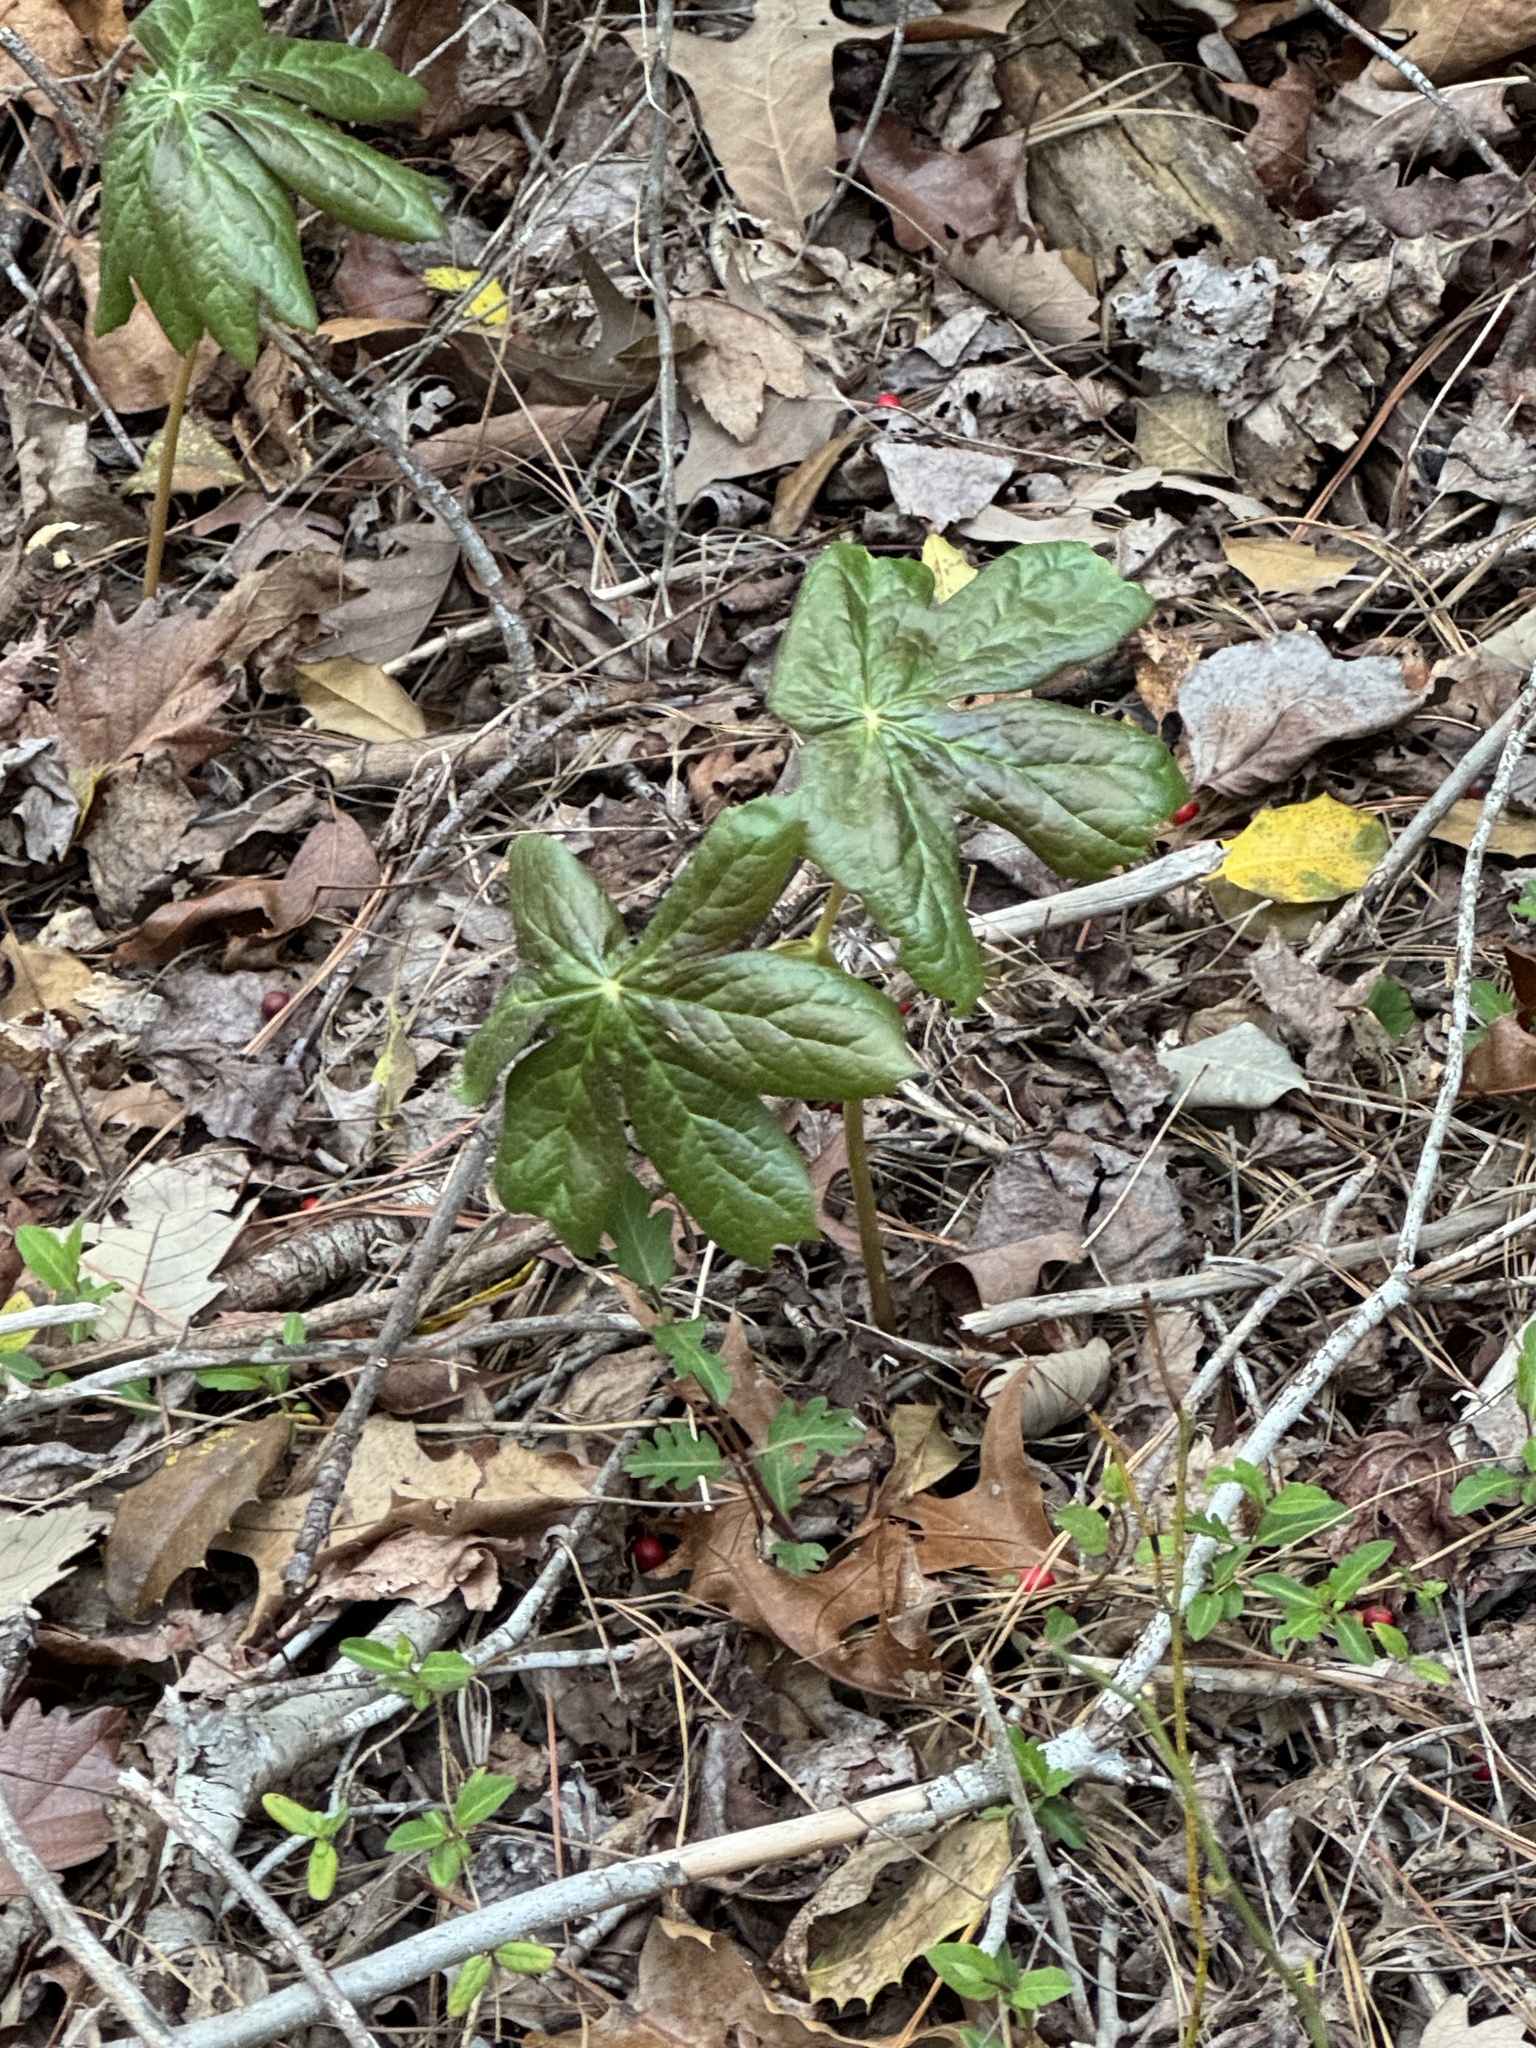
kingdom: Plantae
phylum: Tracheophyta
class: Magnoliopsida
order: Ranunculales
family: Berberidaceae
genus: Podophyllum
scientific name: Podophyllum peltatum
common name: Wild mandrake
